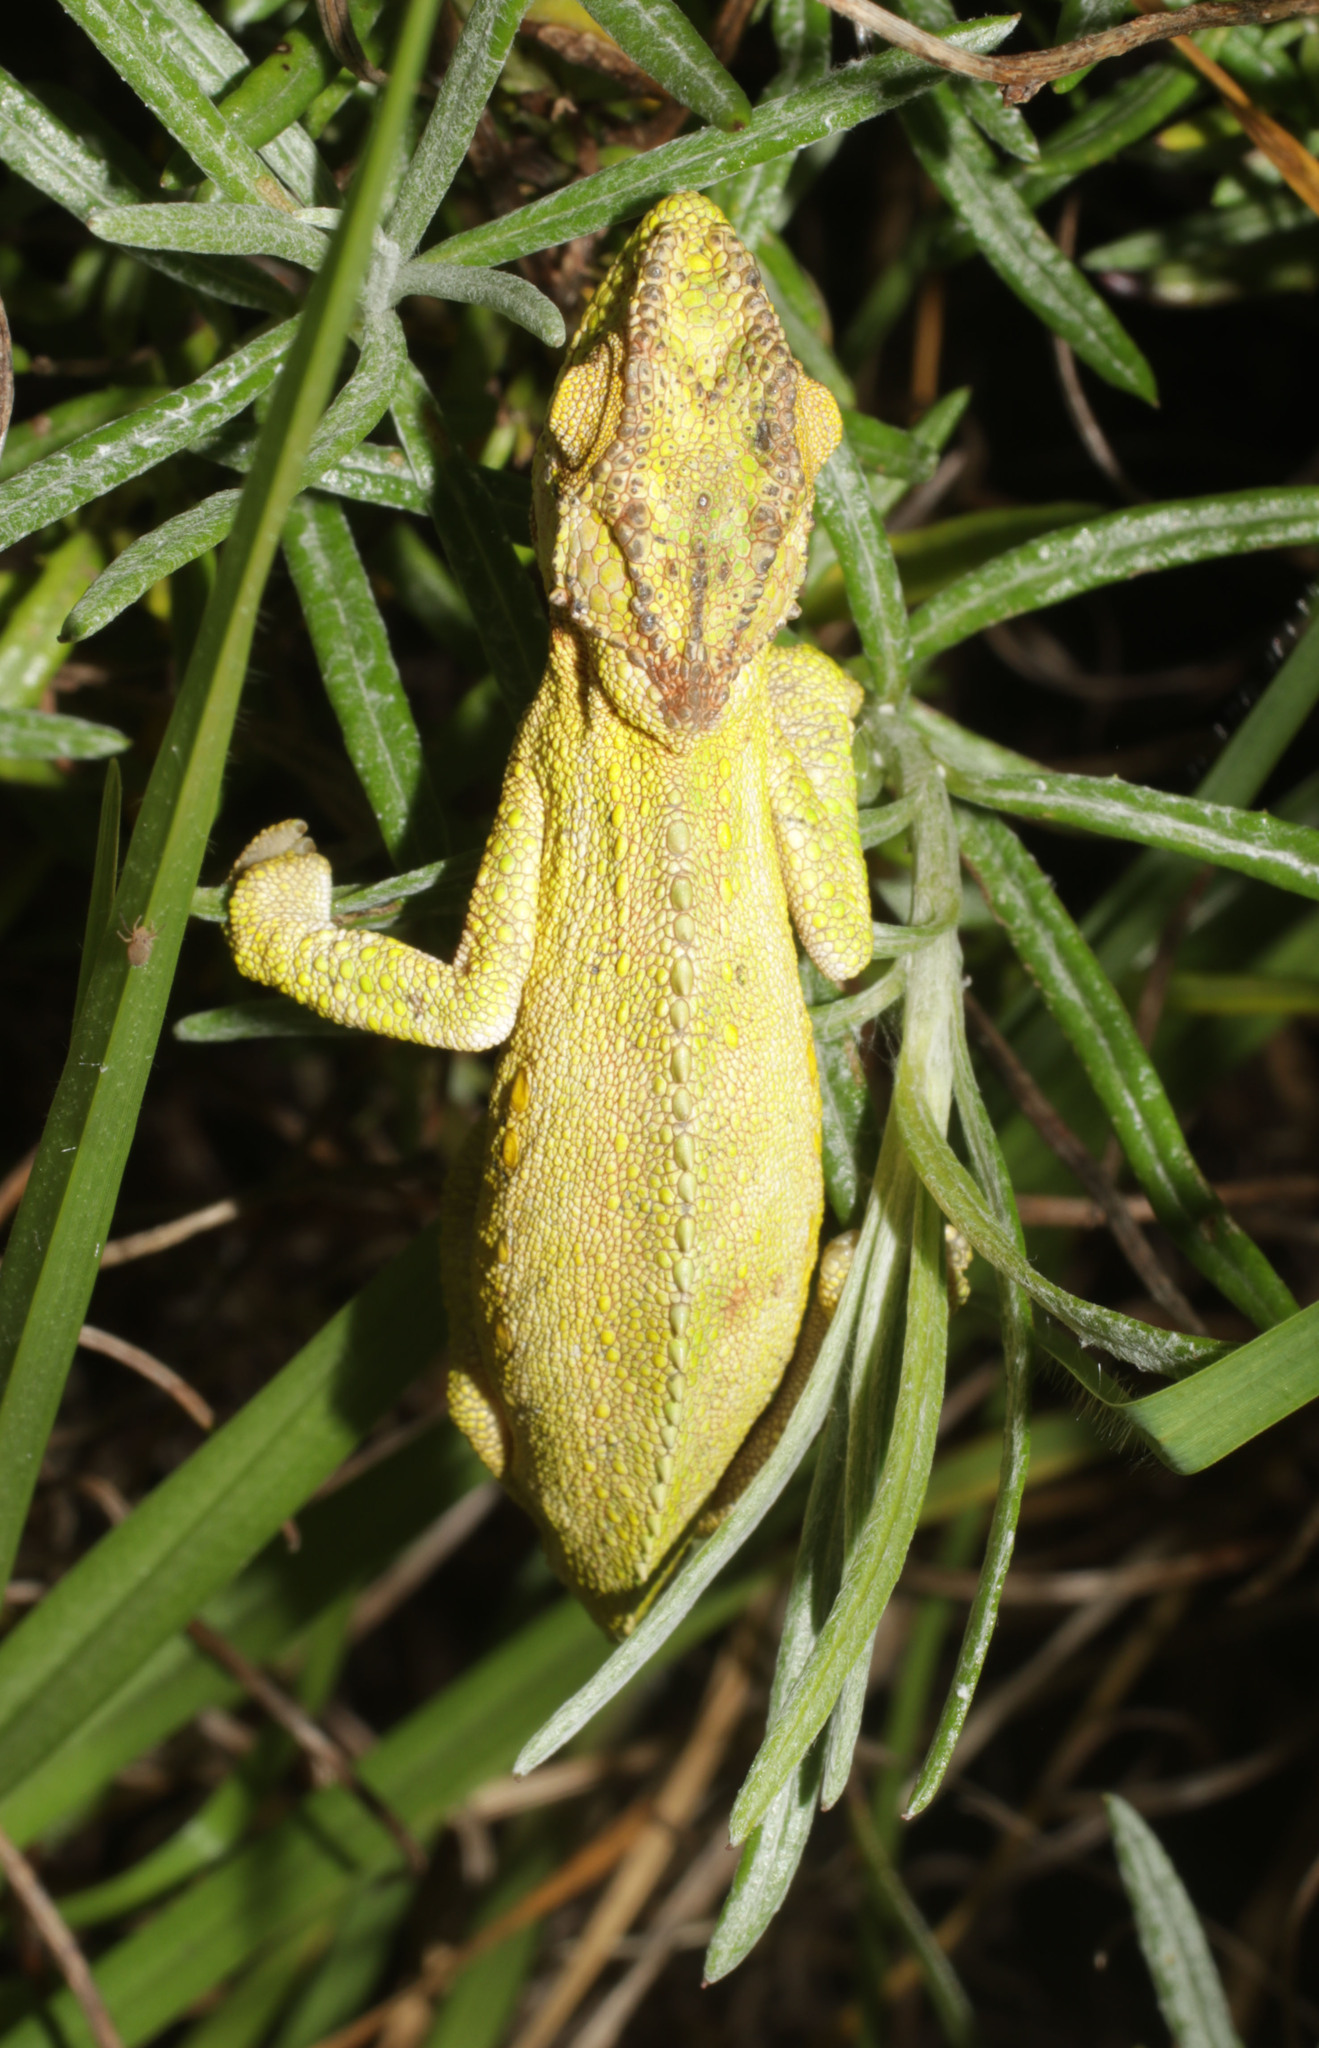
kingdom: Animalia
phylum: Chordata
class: Squamata
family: Chamaeleonidae
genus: Bradypodion
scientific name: Bradypodion pumilum
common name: Cape dwarf chameleon
